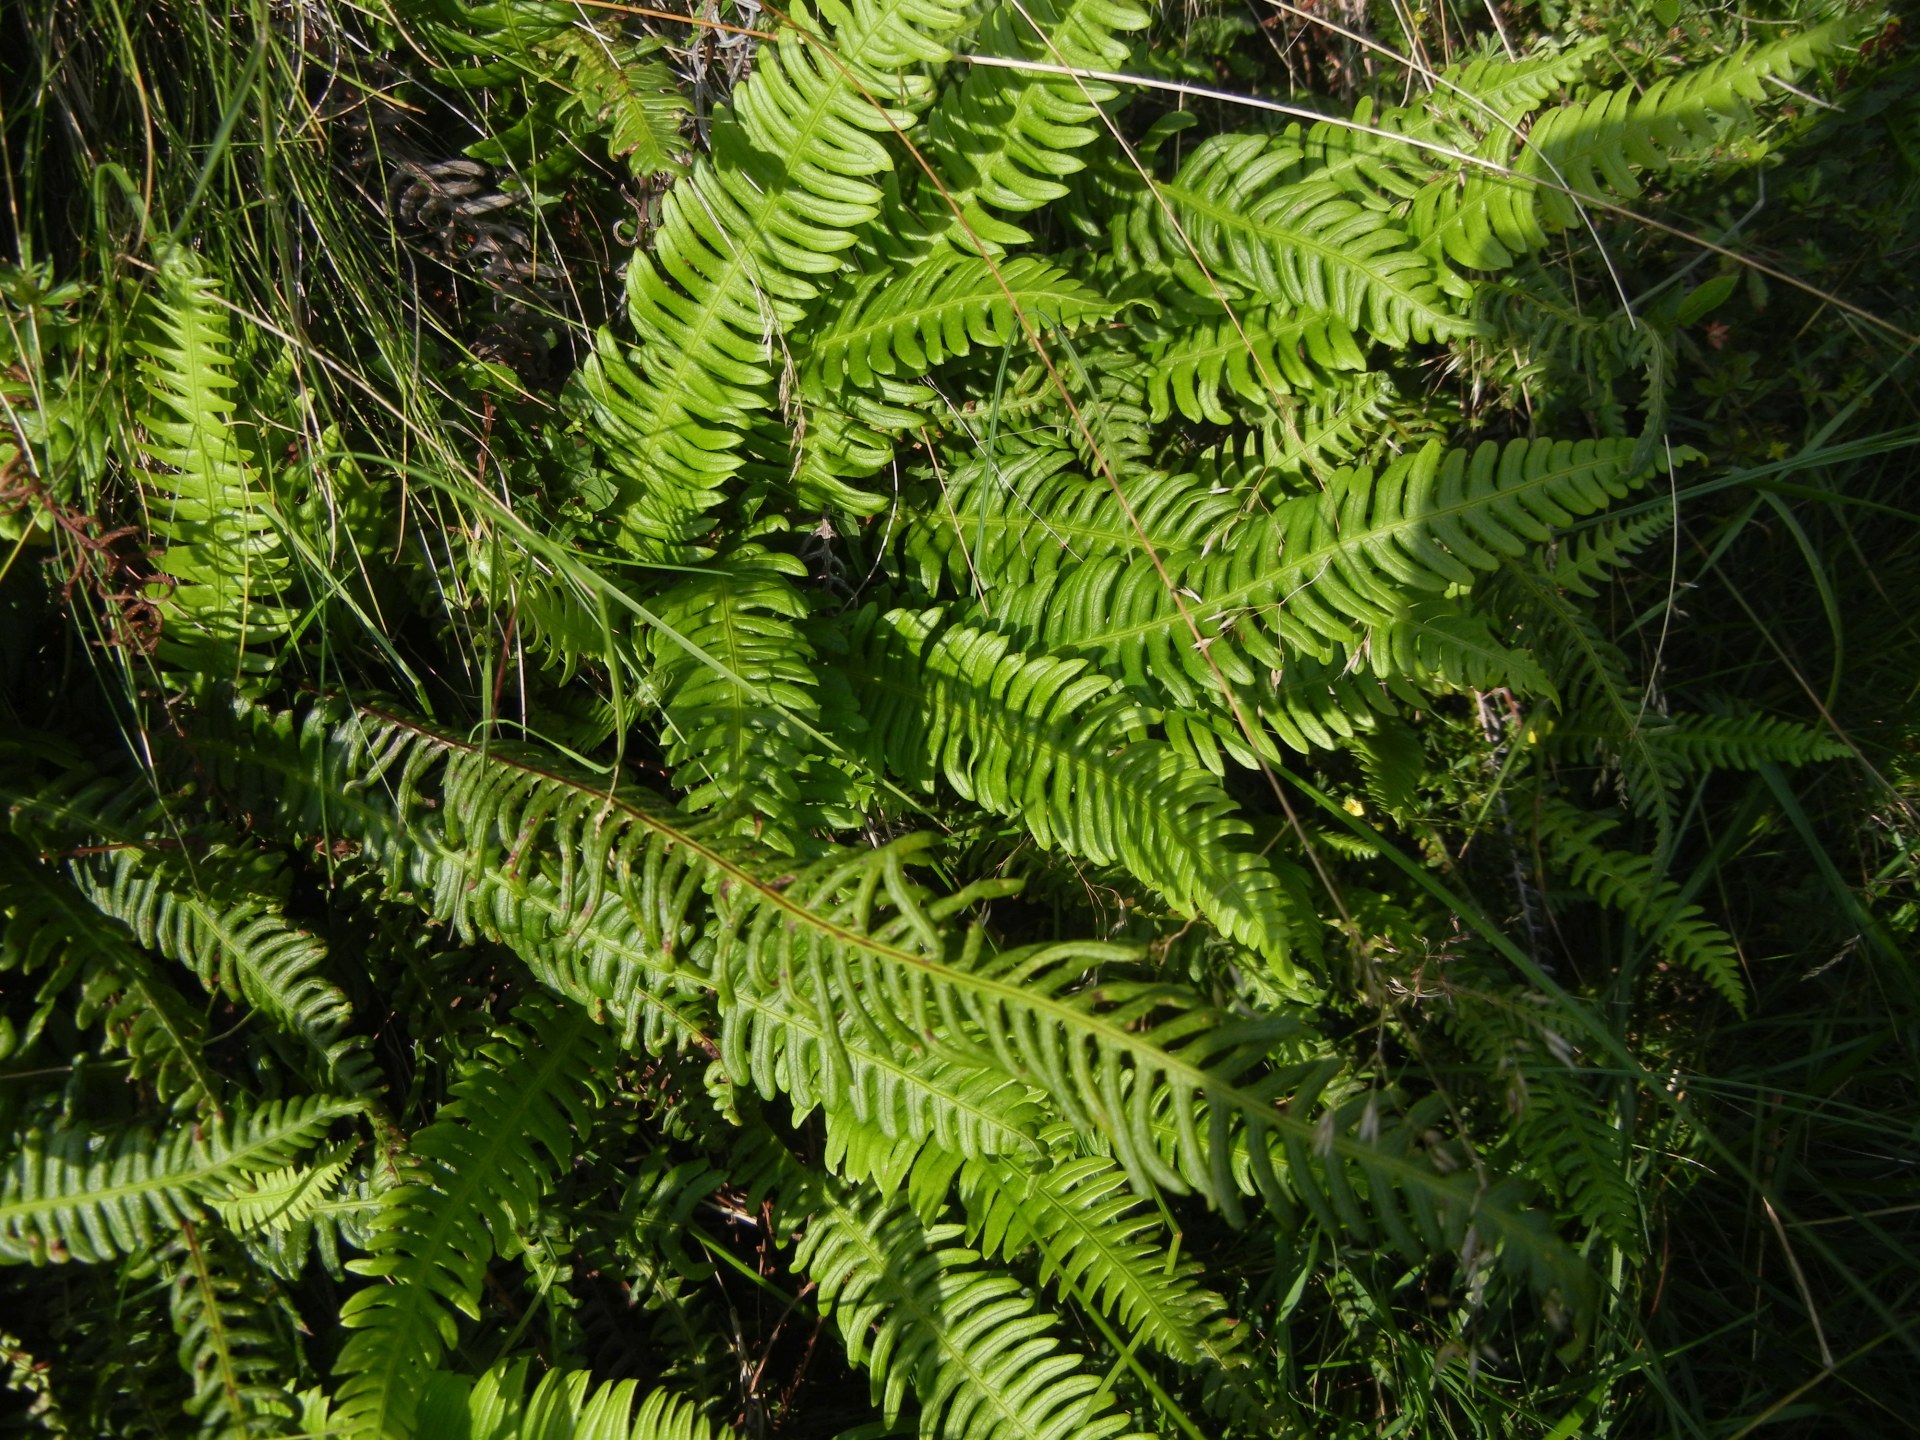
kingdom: Plantae
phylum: Tracheophyta
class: Polypodiopsida
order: Polypodiales
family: Blechnaceae
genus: Struthiopteris
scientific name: Struthiopteris spicant
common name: Deer fern
